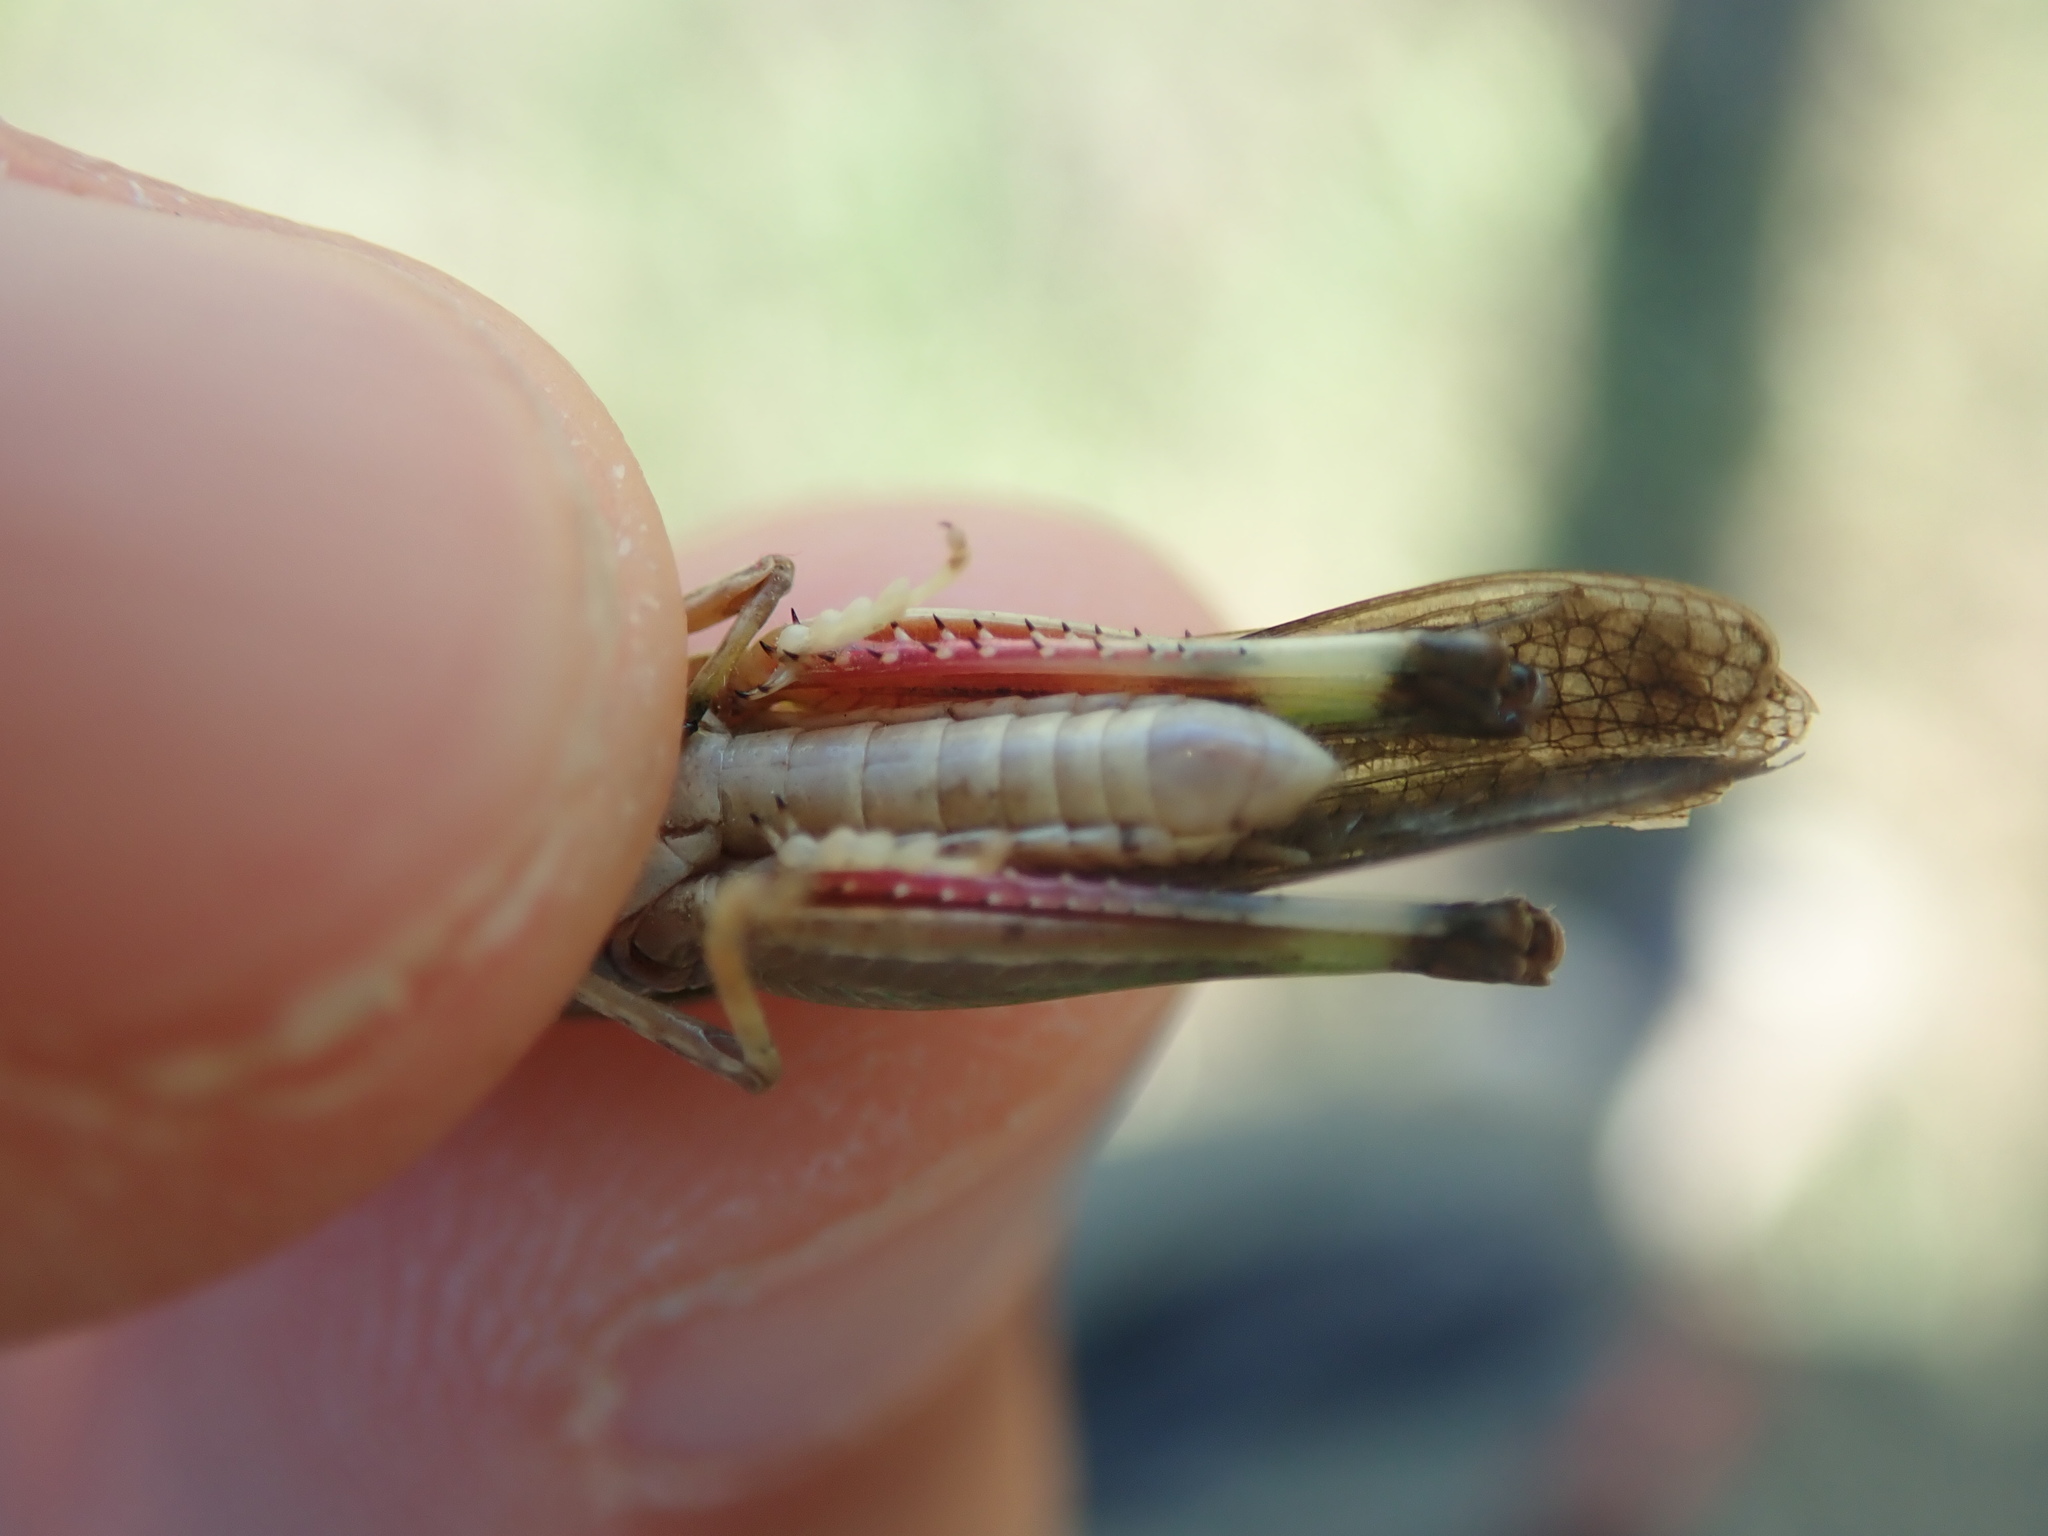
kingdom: Animalia
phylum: Arthropoda
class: Insecta
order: Orthoptera
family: Acrididae
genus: Aiolopus
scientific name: Aiolopus thalassinus
